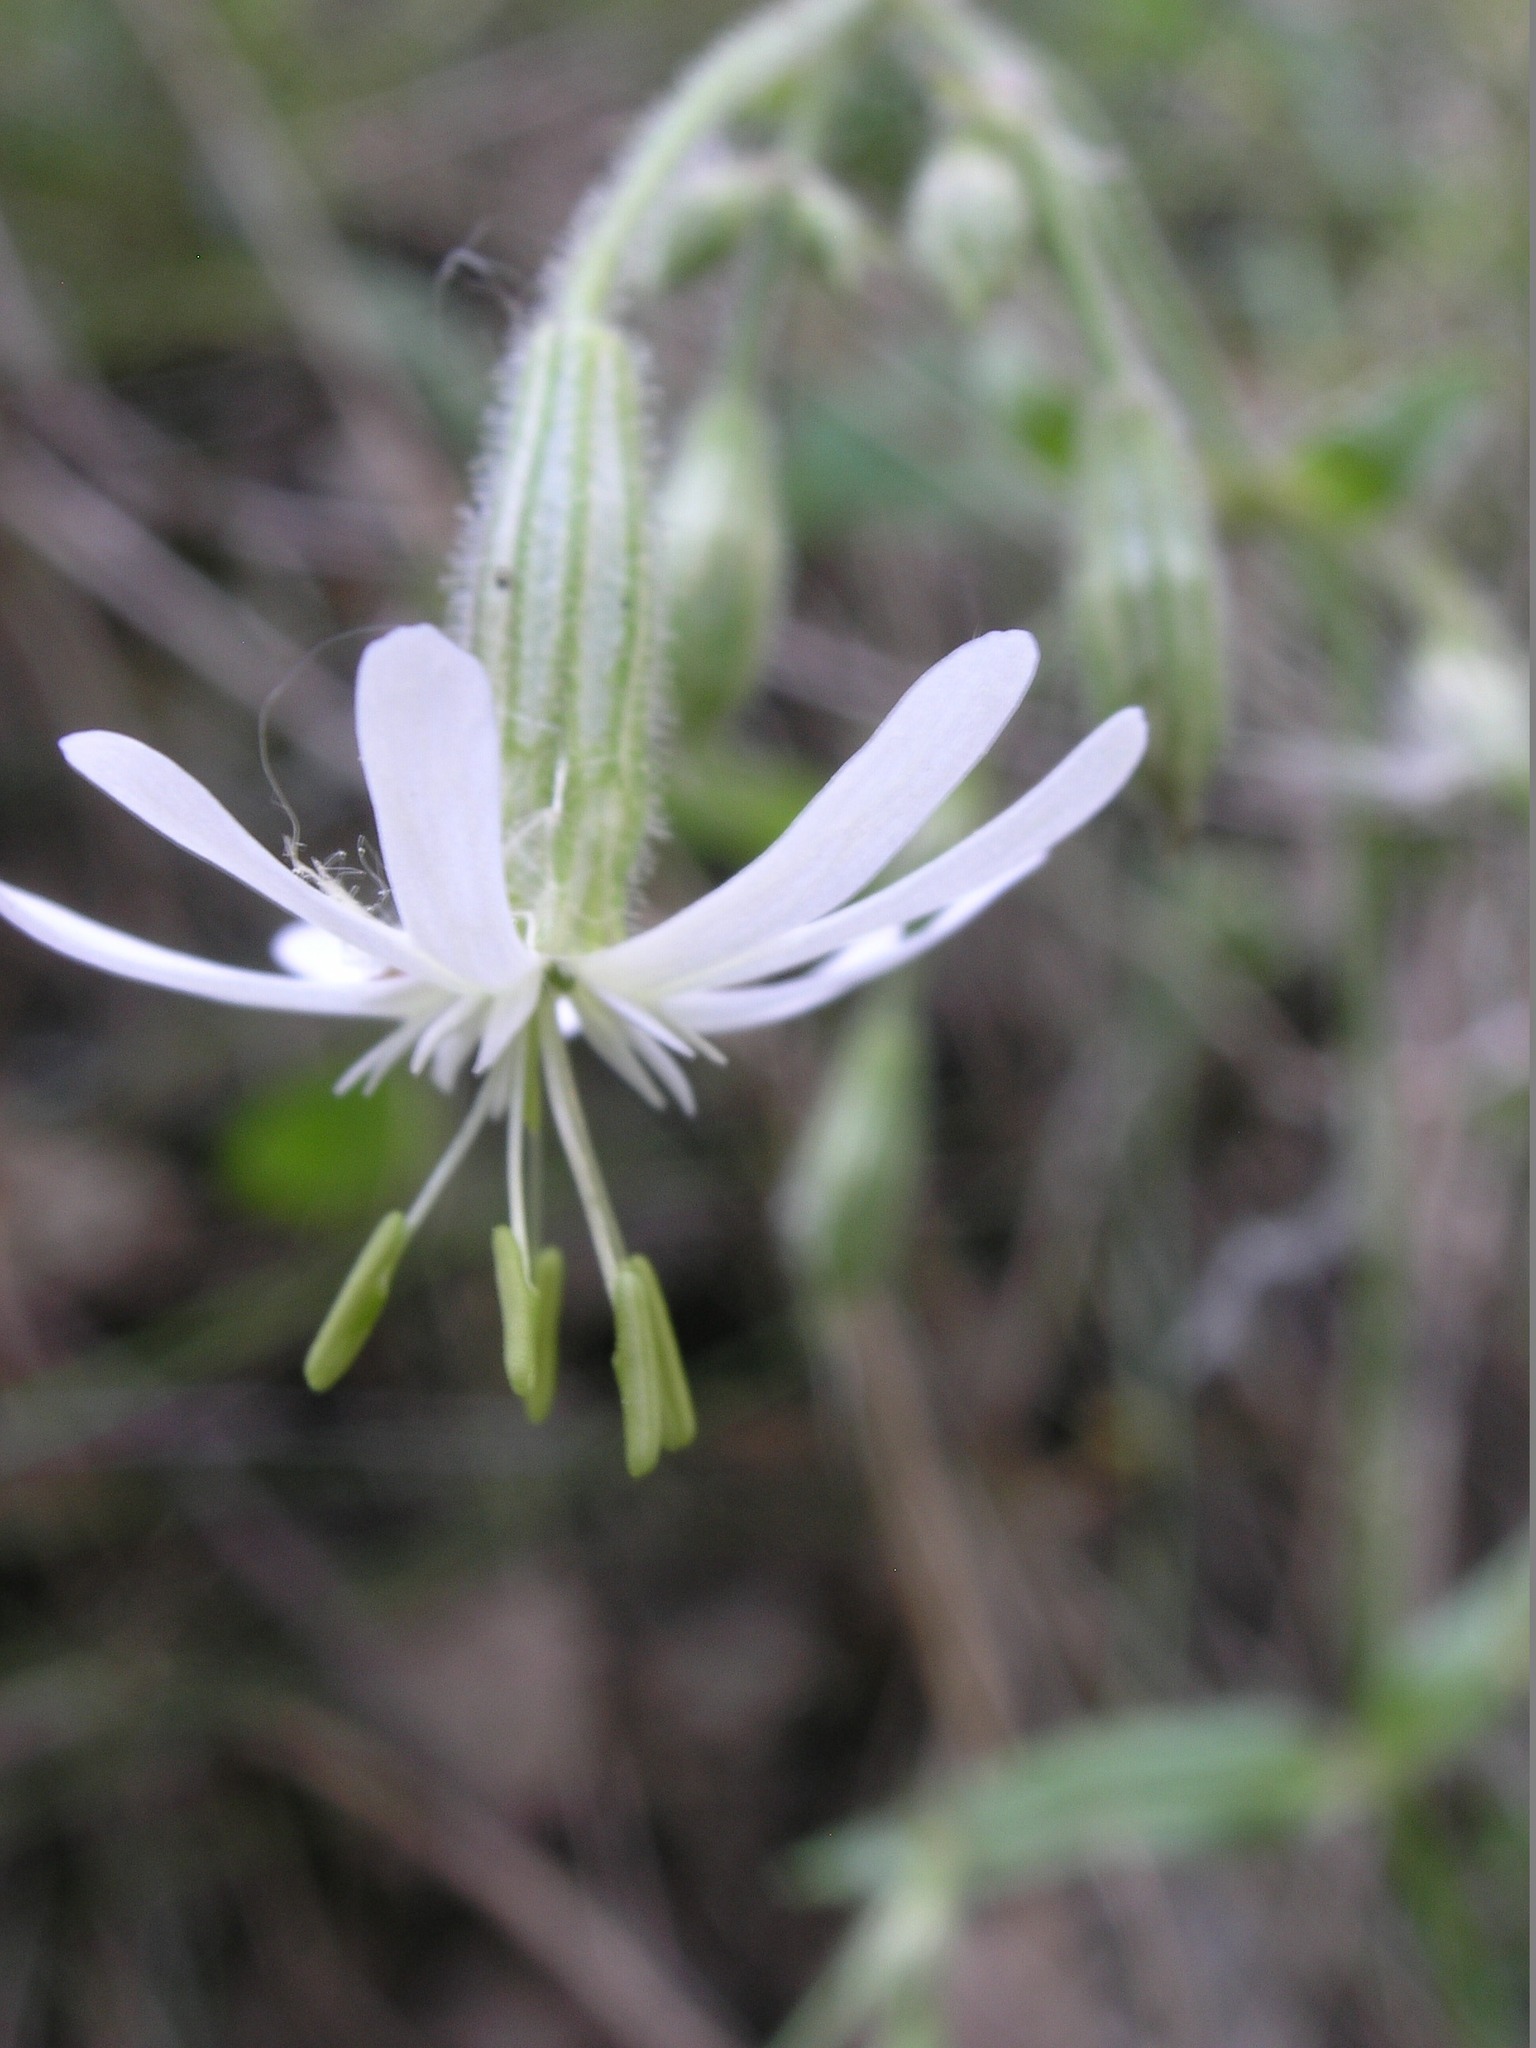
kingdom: Plantae
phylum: Tracheophyta
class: Magnoliopsida
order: Caryophyllales
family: Caryophyllaceae
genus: Silene
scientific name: Silene nutans
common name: Nottingham catchfly
